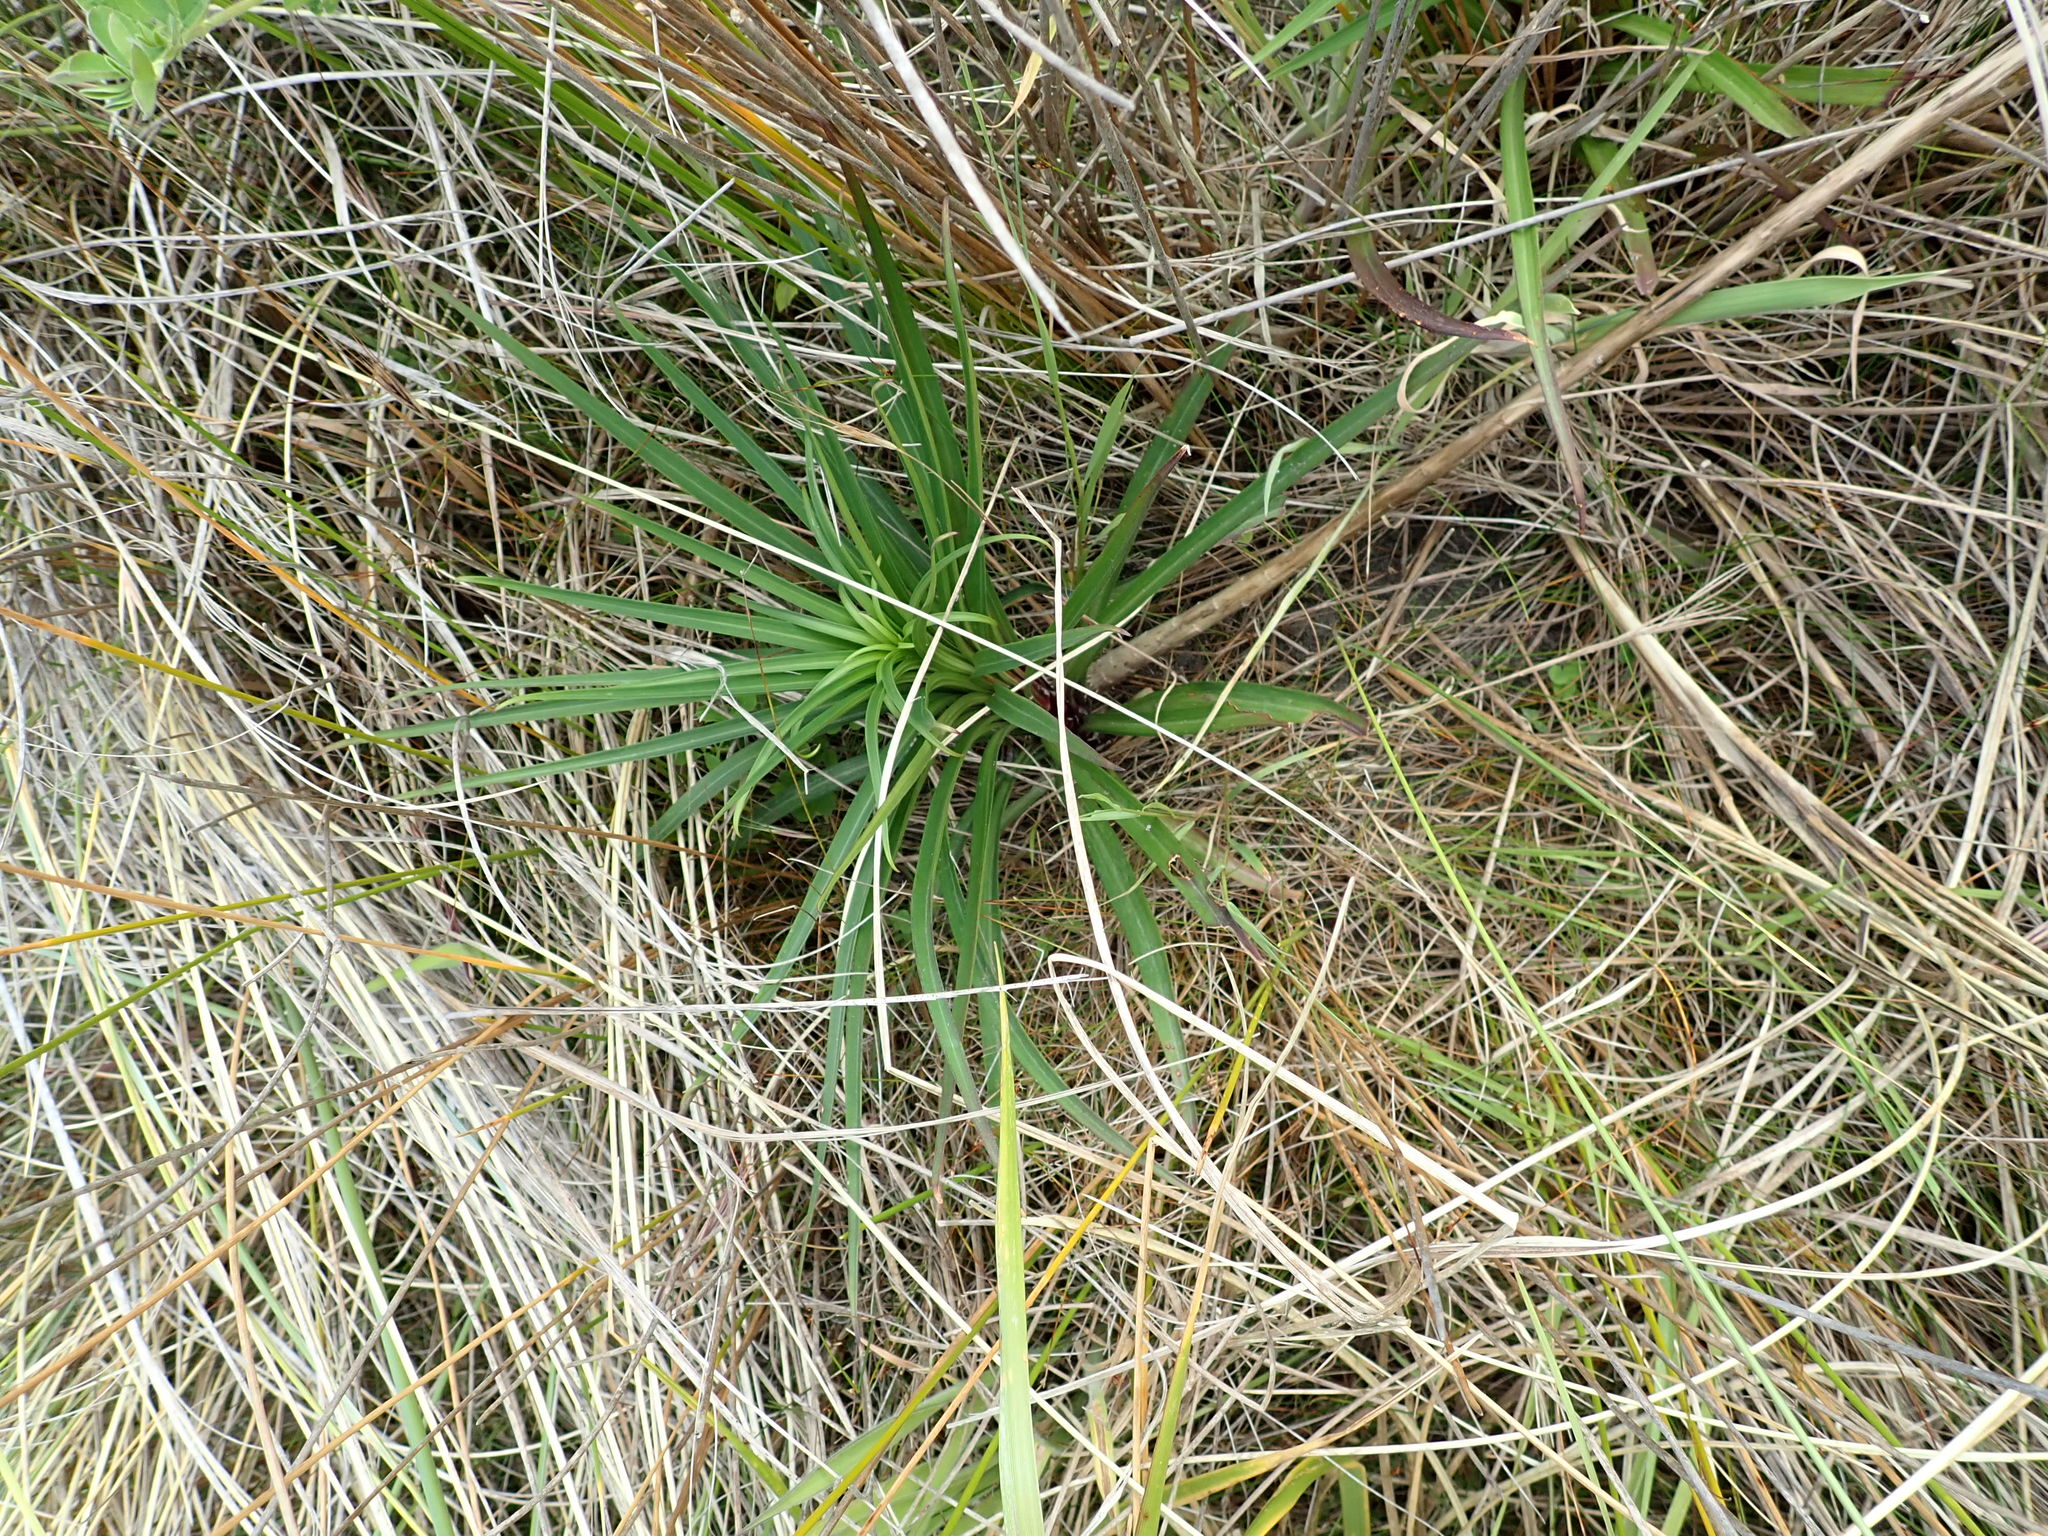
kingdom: Plantae
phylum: Tracheophyta
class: Liliopsida
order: Liliales
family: Liliaceae
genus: Lilium
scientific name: Lilium formosanum
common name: Formosa lily
